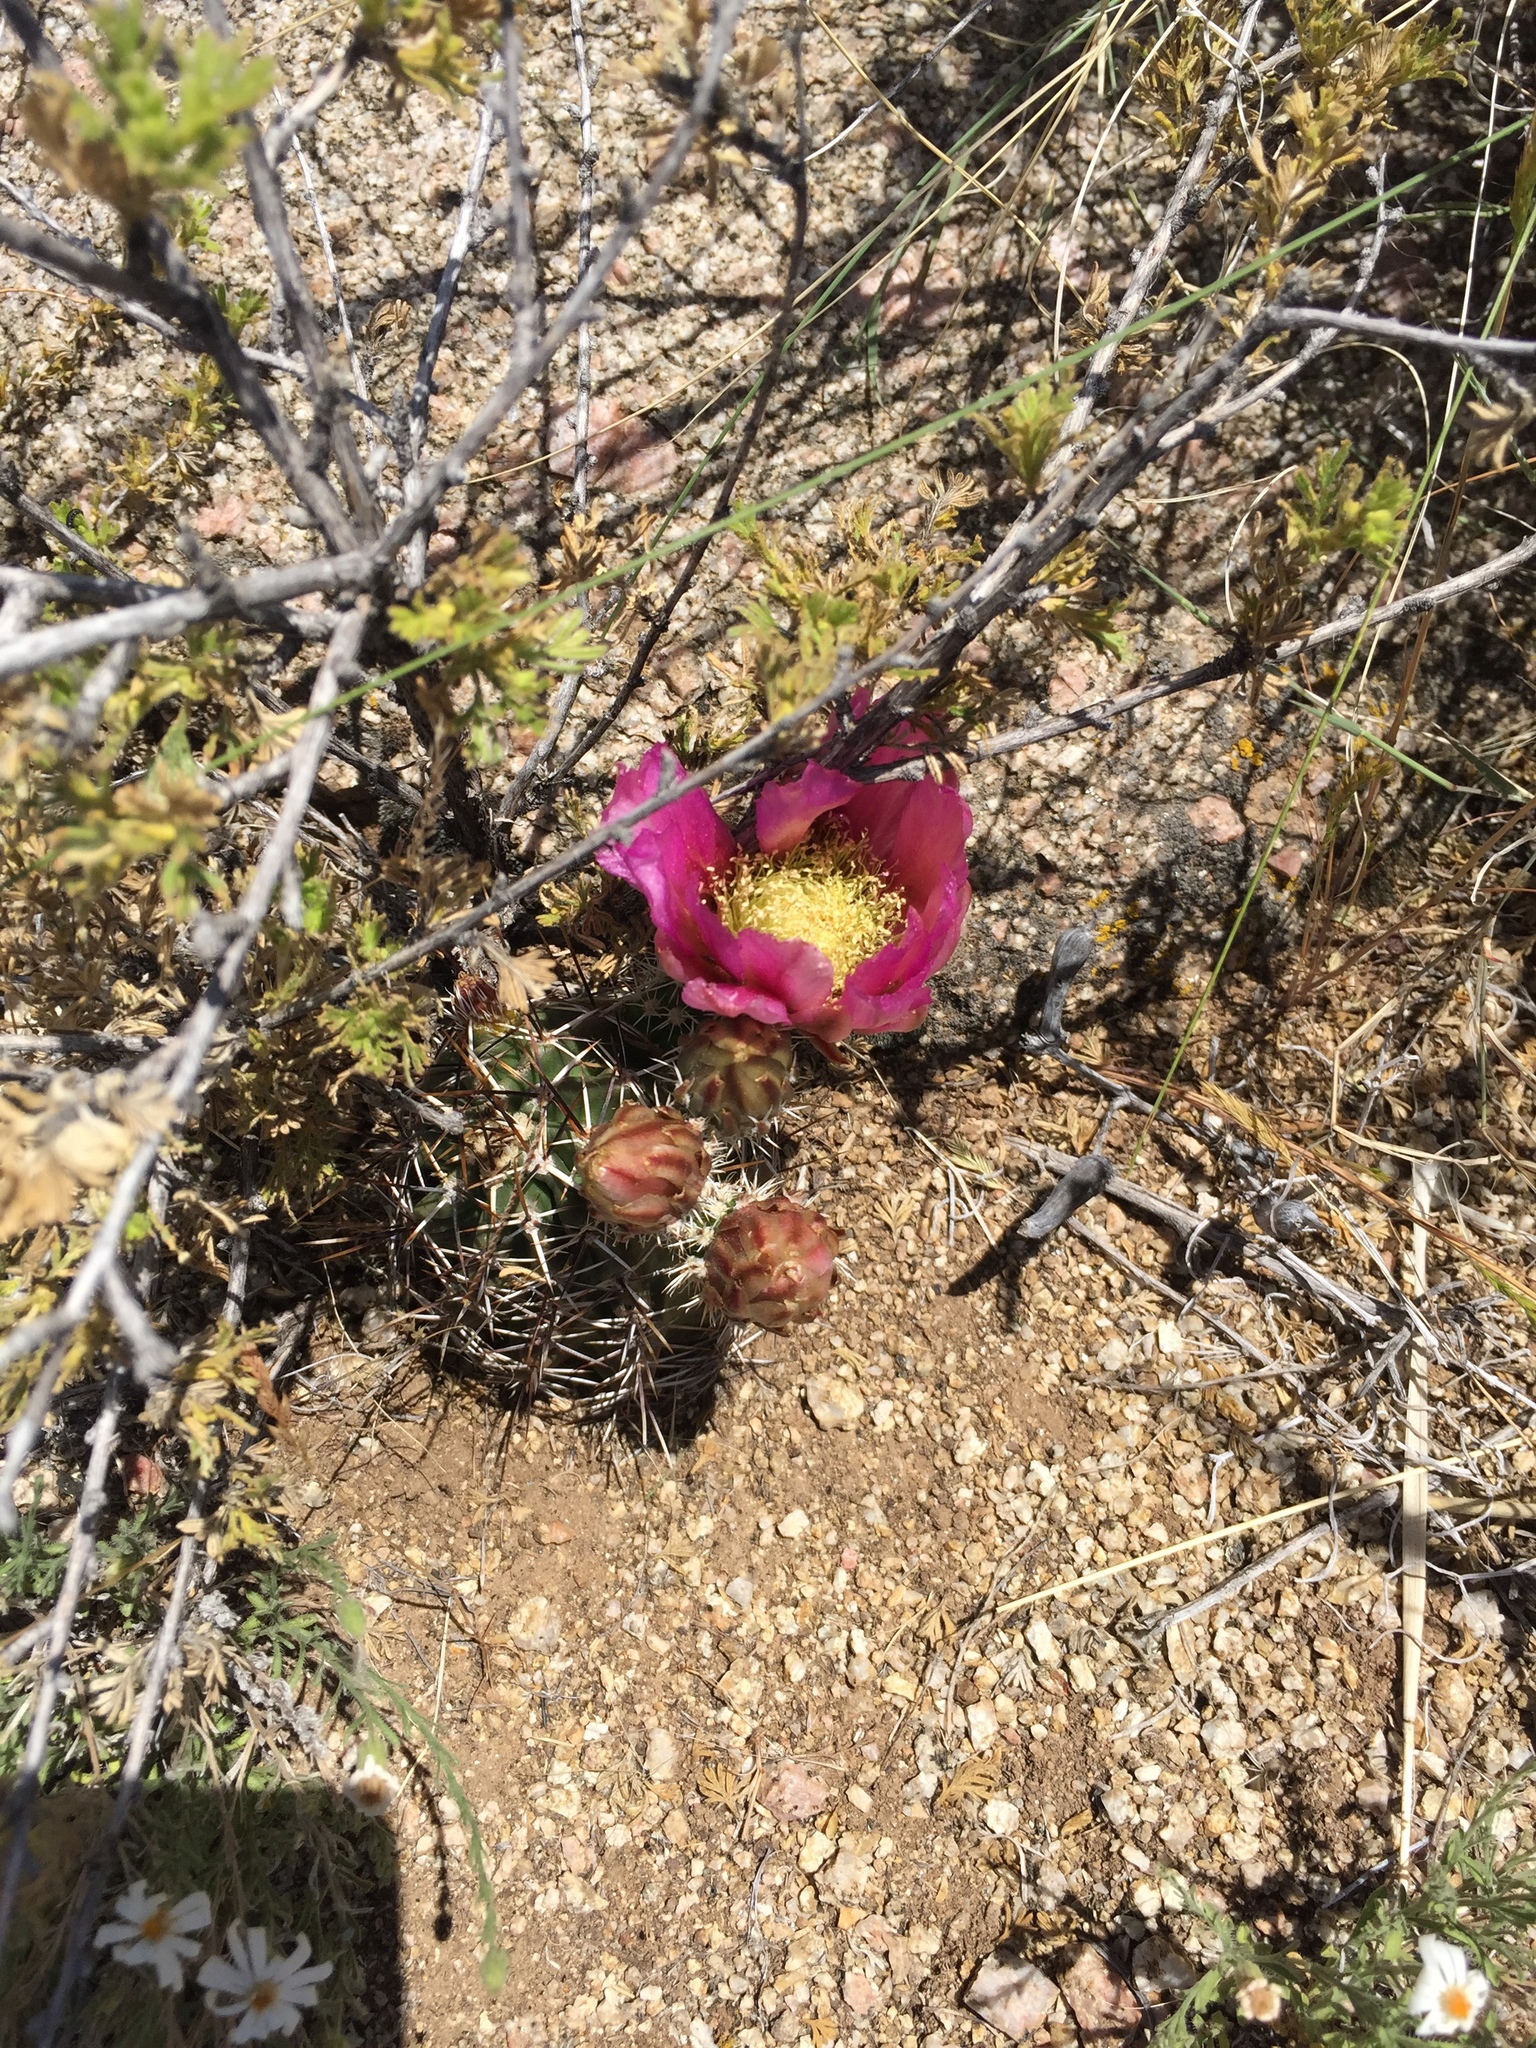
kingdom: Plantae
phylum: Tracheophyta
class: Magnoliopsida
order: Caryophyllales
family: Cactaceae
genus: Echinocereus
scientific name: Echinocereus fendleri
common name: Fendler's hedgehog cactus
